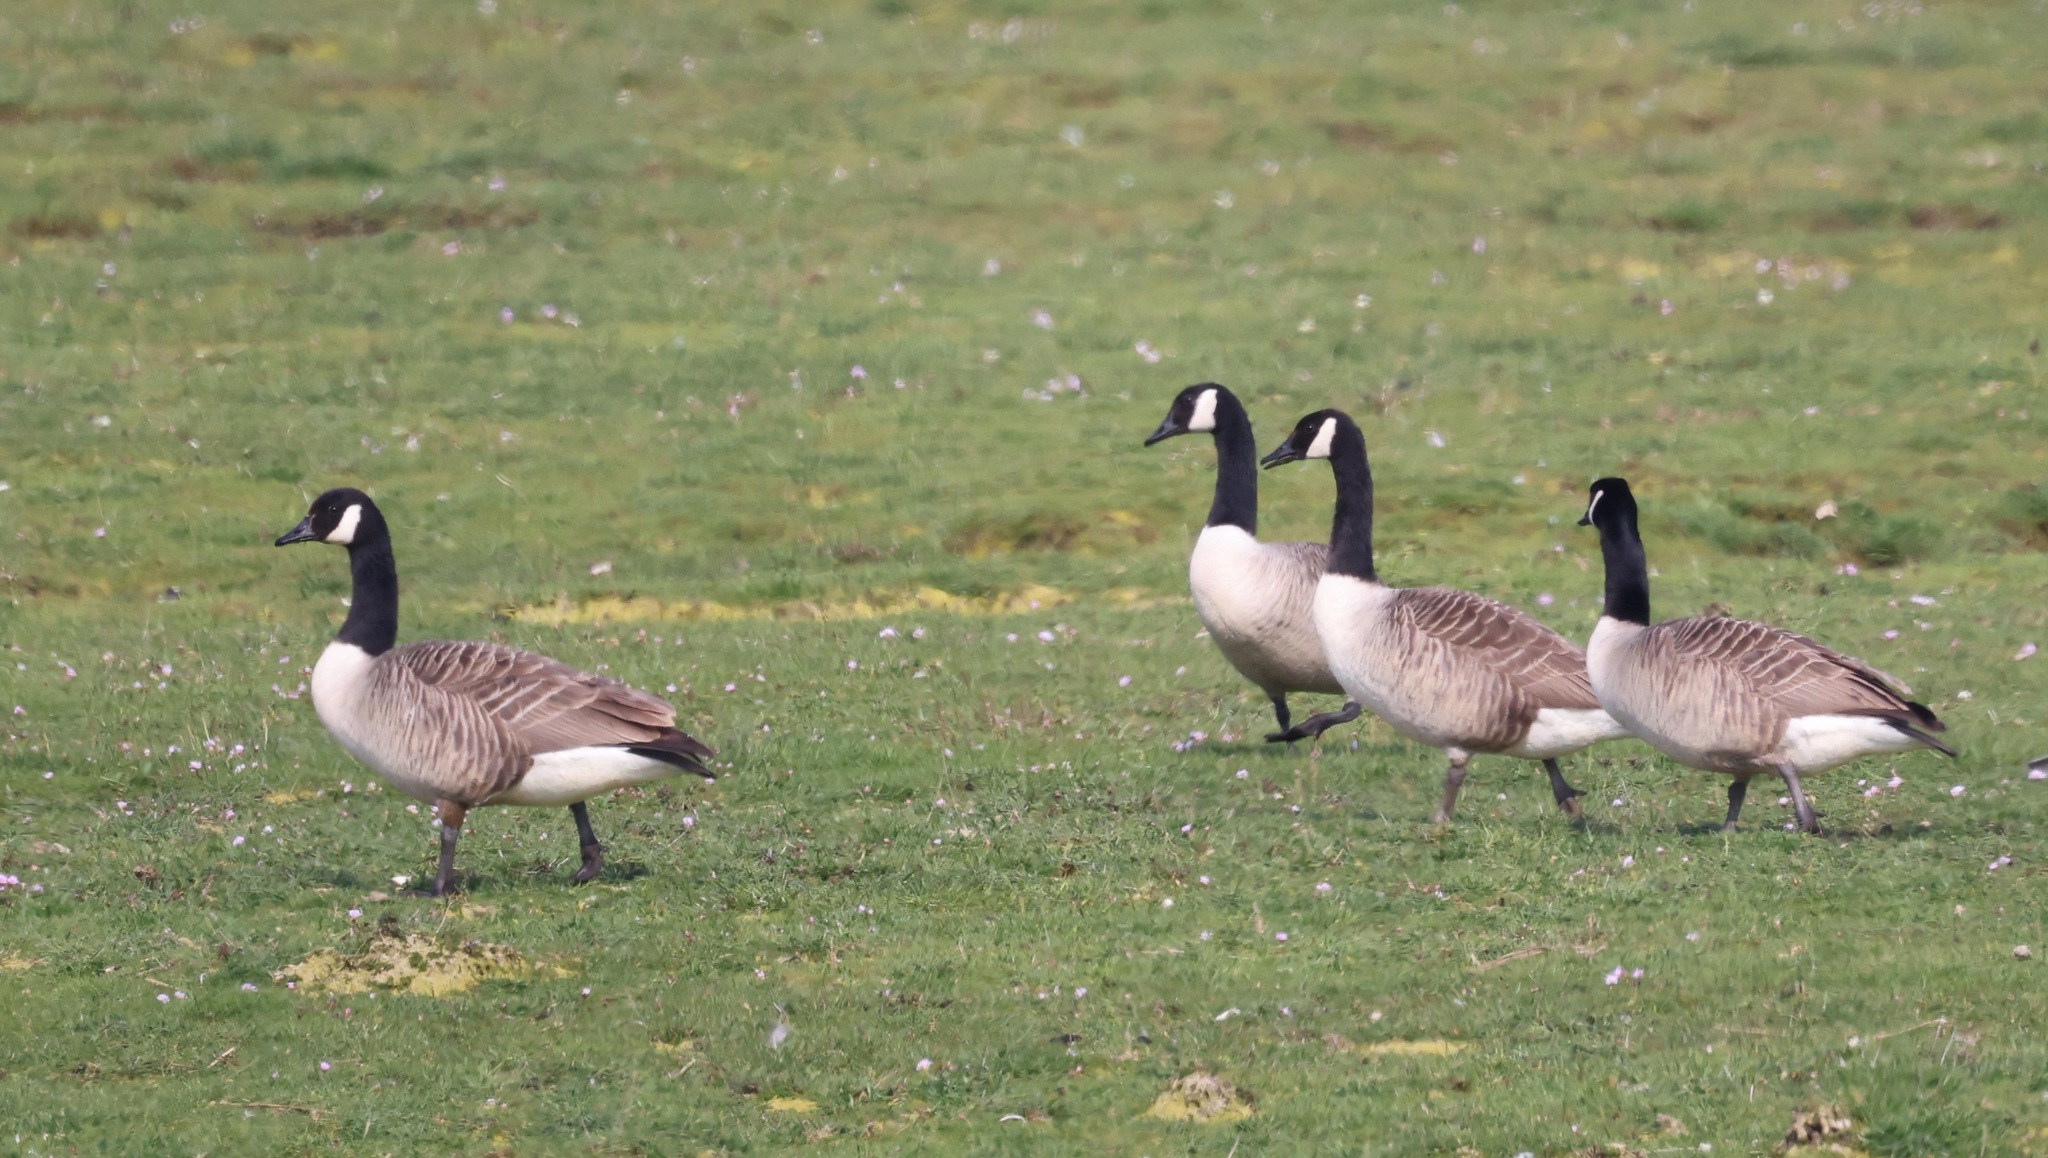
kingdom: Animalia
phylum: Chordata
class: Aves
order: Anseriformes
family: Anatidae
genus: Branta
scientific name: Branta canadensis
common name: Canada goose
